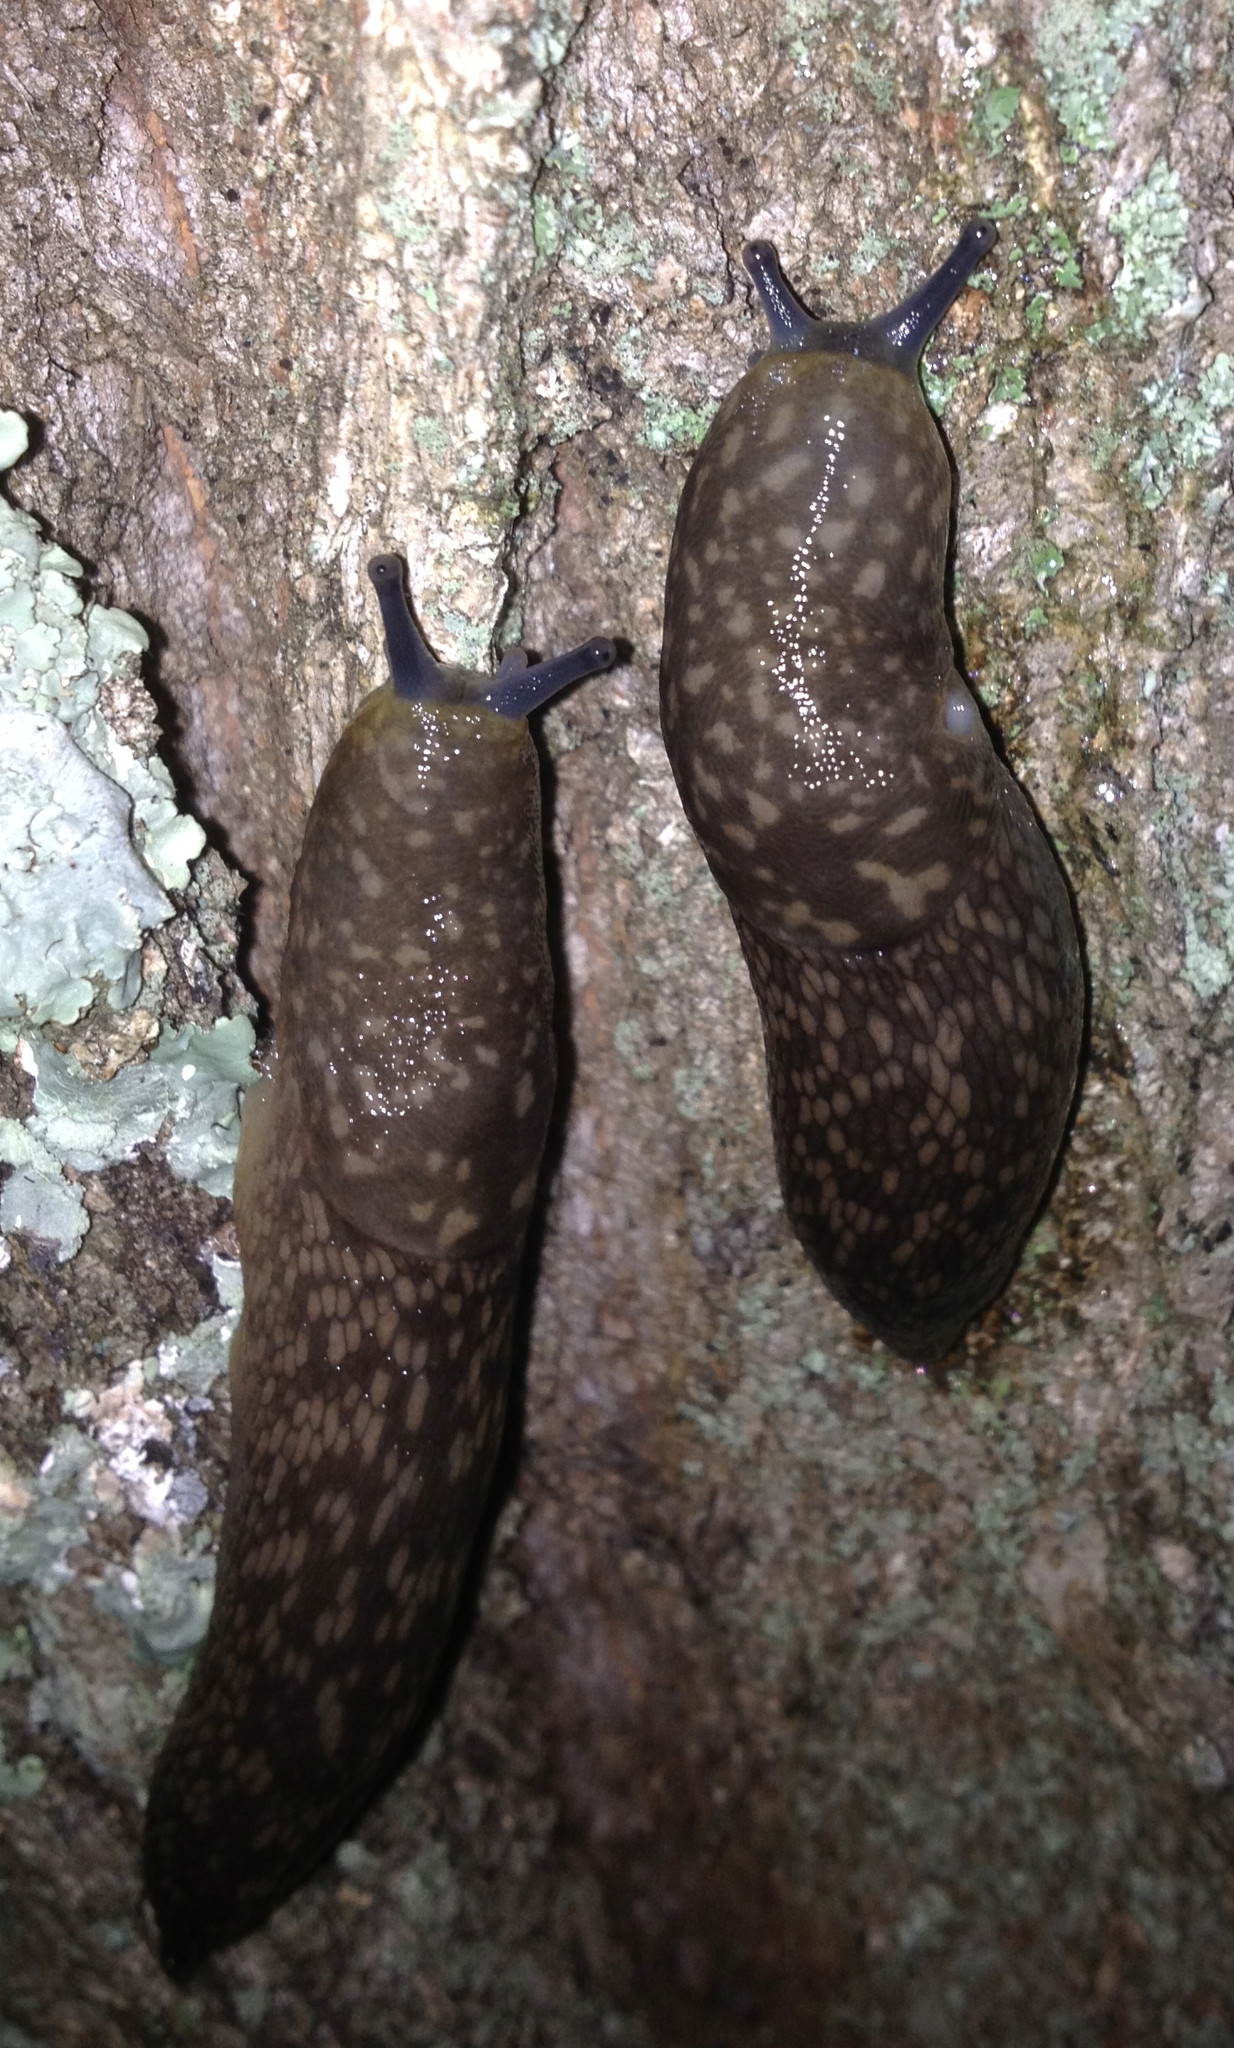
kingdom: Animalia
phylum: Mollusca
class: Gastropoda
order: Stylommatophora
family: Limacidae
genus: Limacus
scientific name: Limacus flavus
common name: Yellow gardenslug
